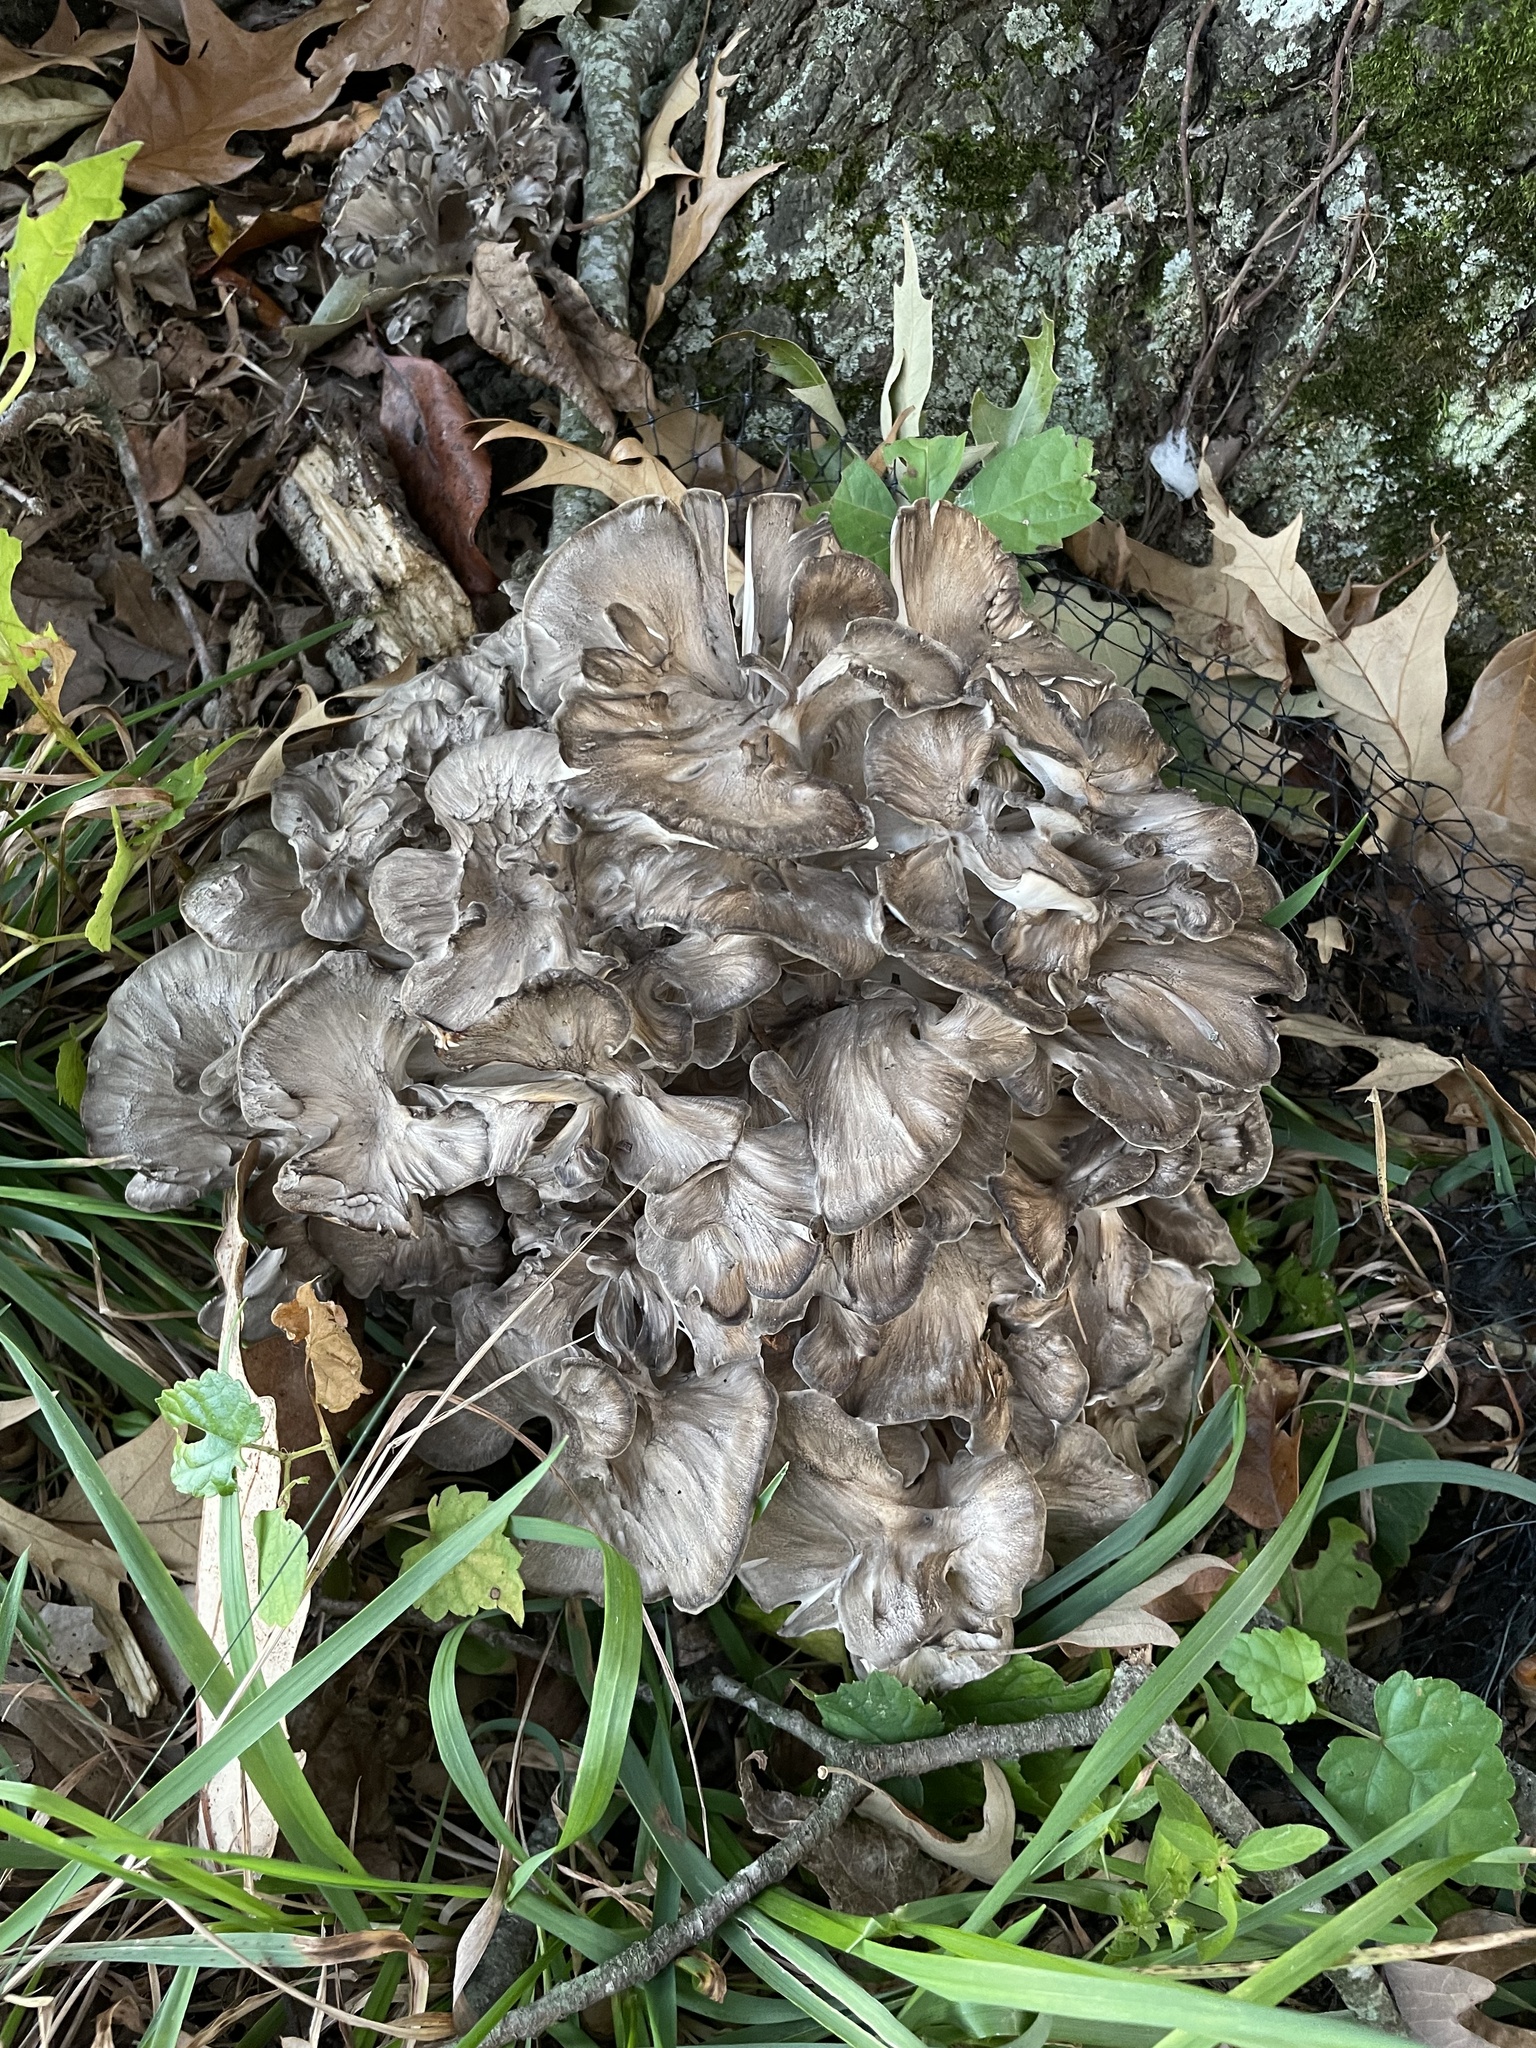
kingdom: Fungi
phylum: Basidiomycota
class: Agaricomycetes
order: Polyporales
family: Grifolaceae
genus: Grifola
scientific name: Grifola frondosa
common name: Hen of the woods
